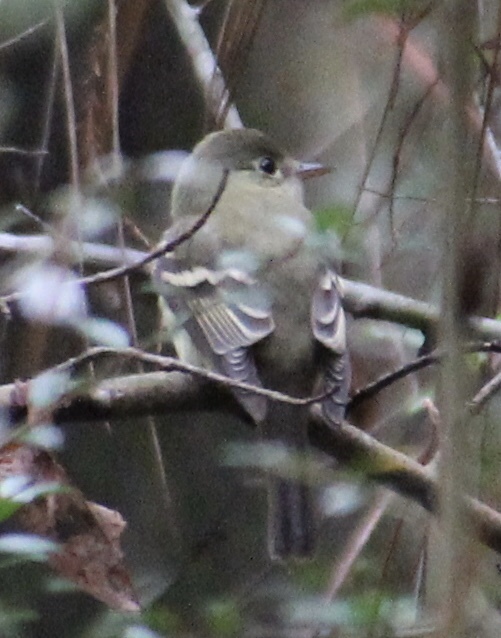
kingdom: Animalia
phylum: Chordata
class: Aves
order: Passeriformes
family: Tyrannidae
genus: Empidonax
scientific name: Empidonax virescens
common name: Acadian flycatcher
